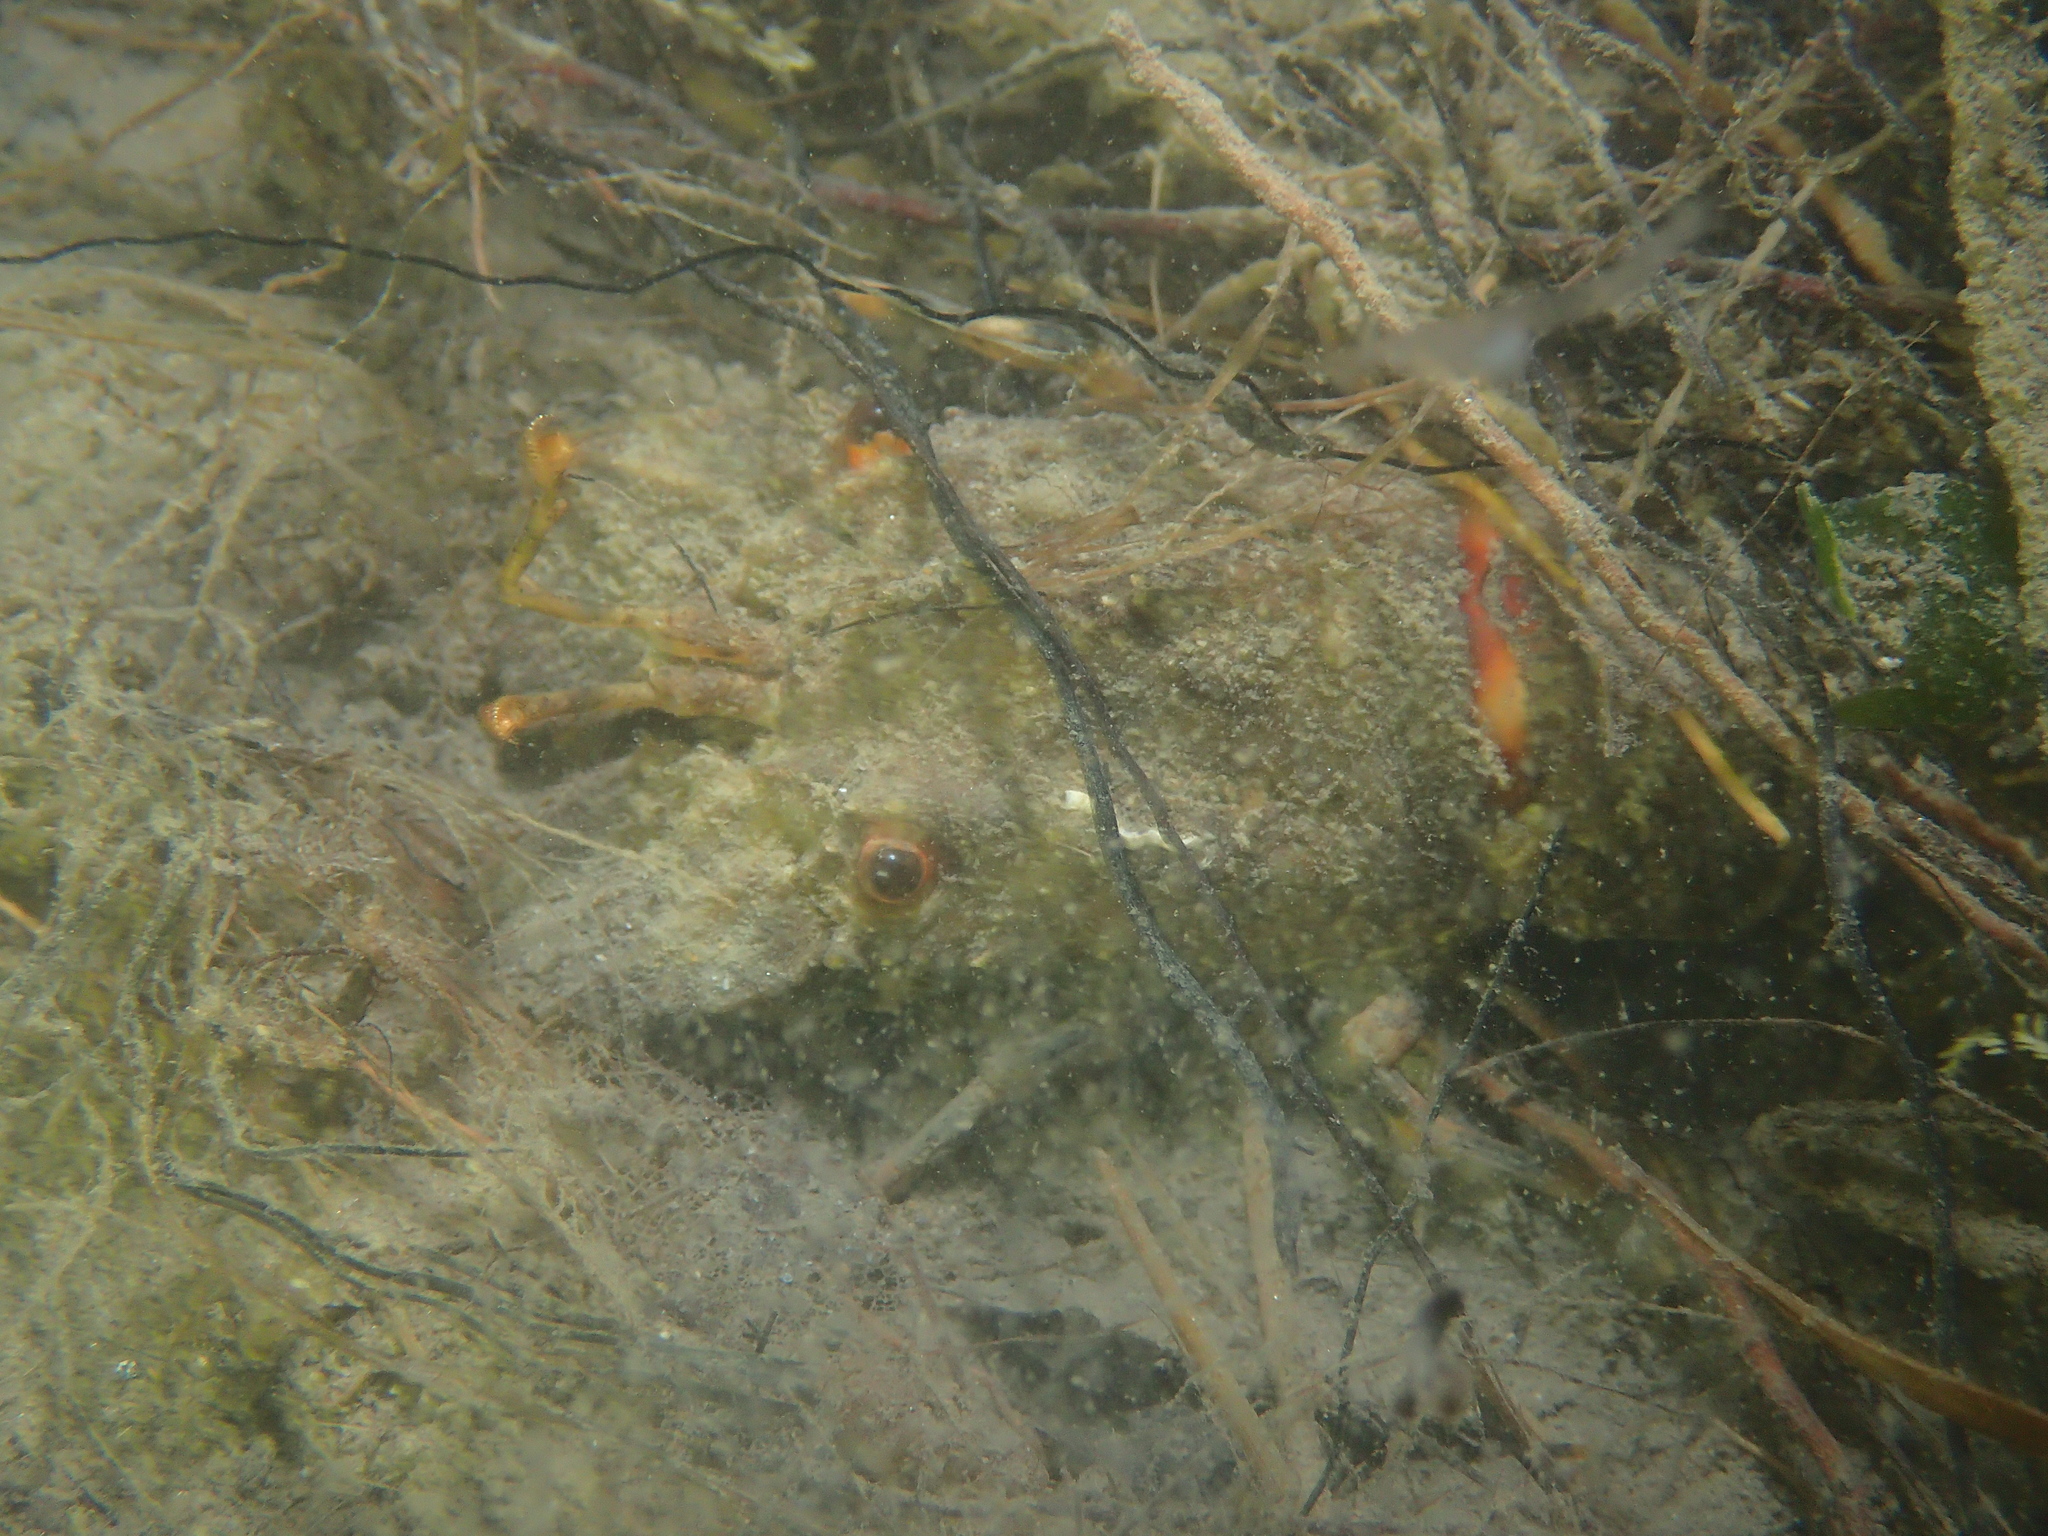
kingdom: Animalia
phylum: Arthropoda
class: Malacostraca
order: Decapoda
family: Scyllaridae
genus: Scyllarus
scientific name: Scyllarus arctus
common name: Small european locust lobster
